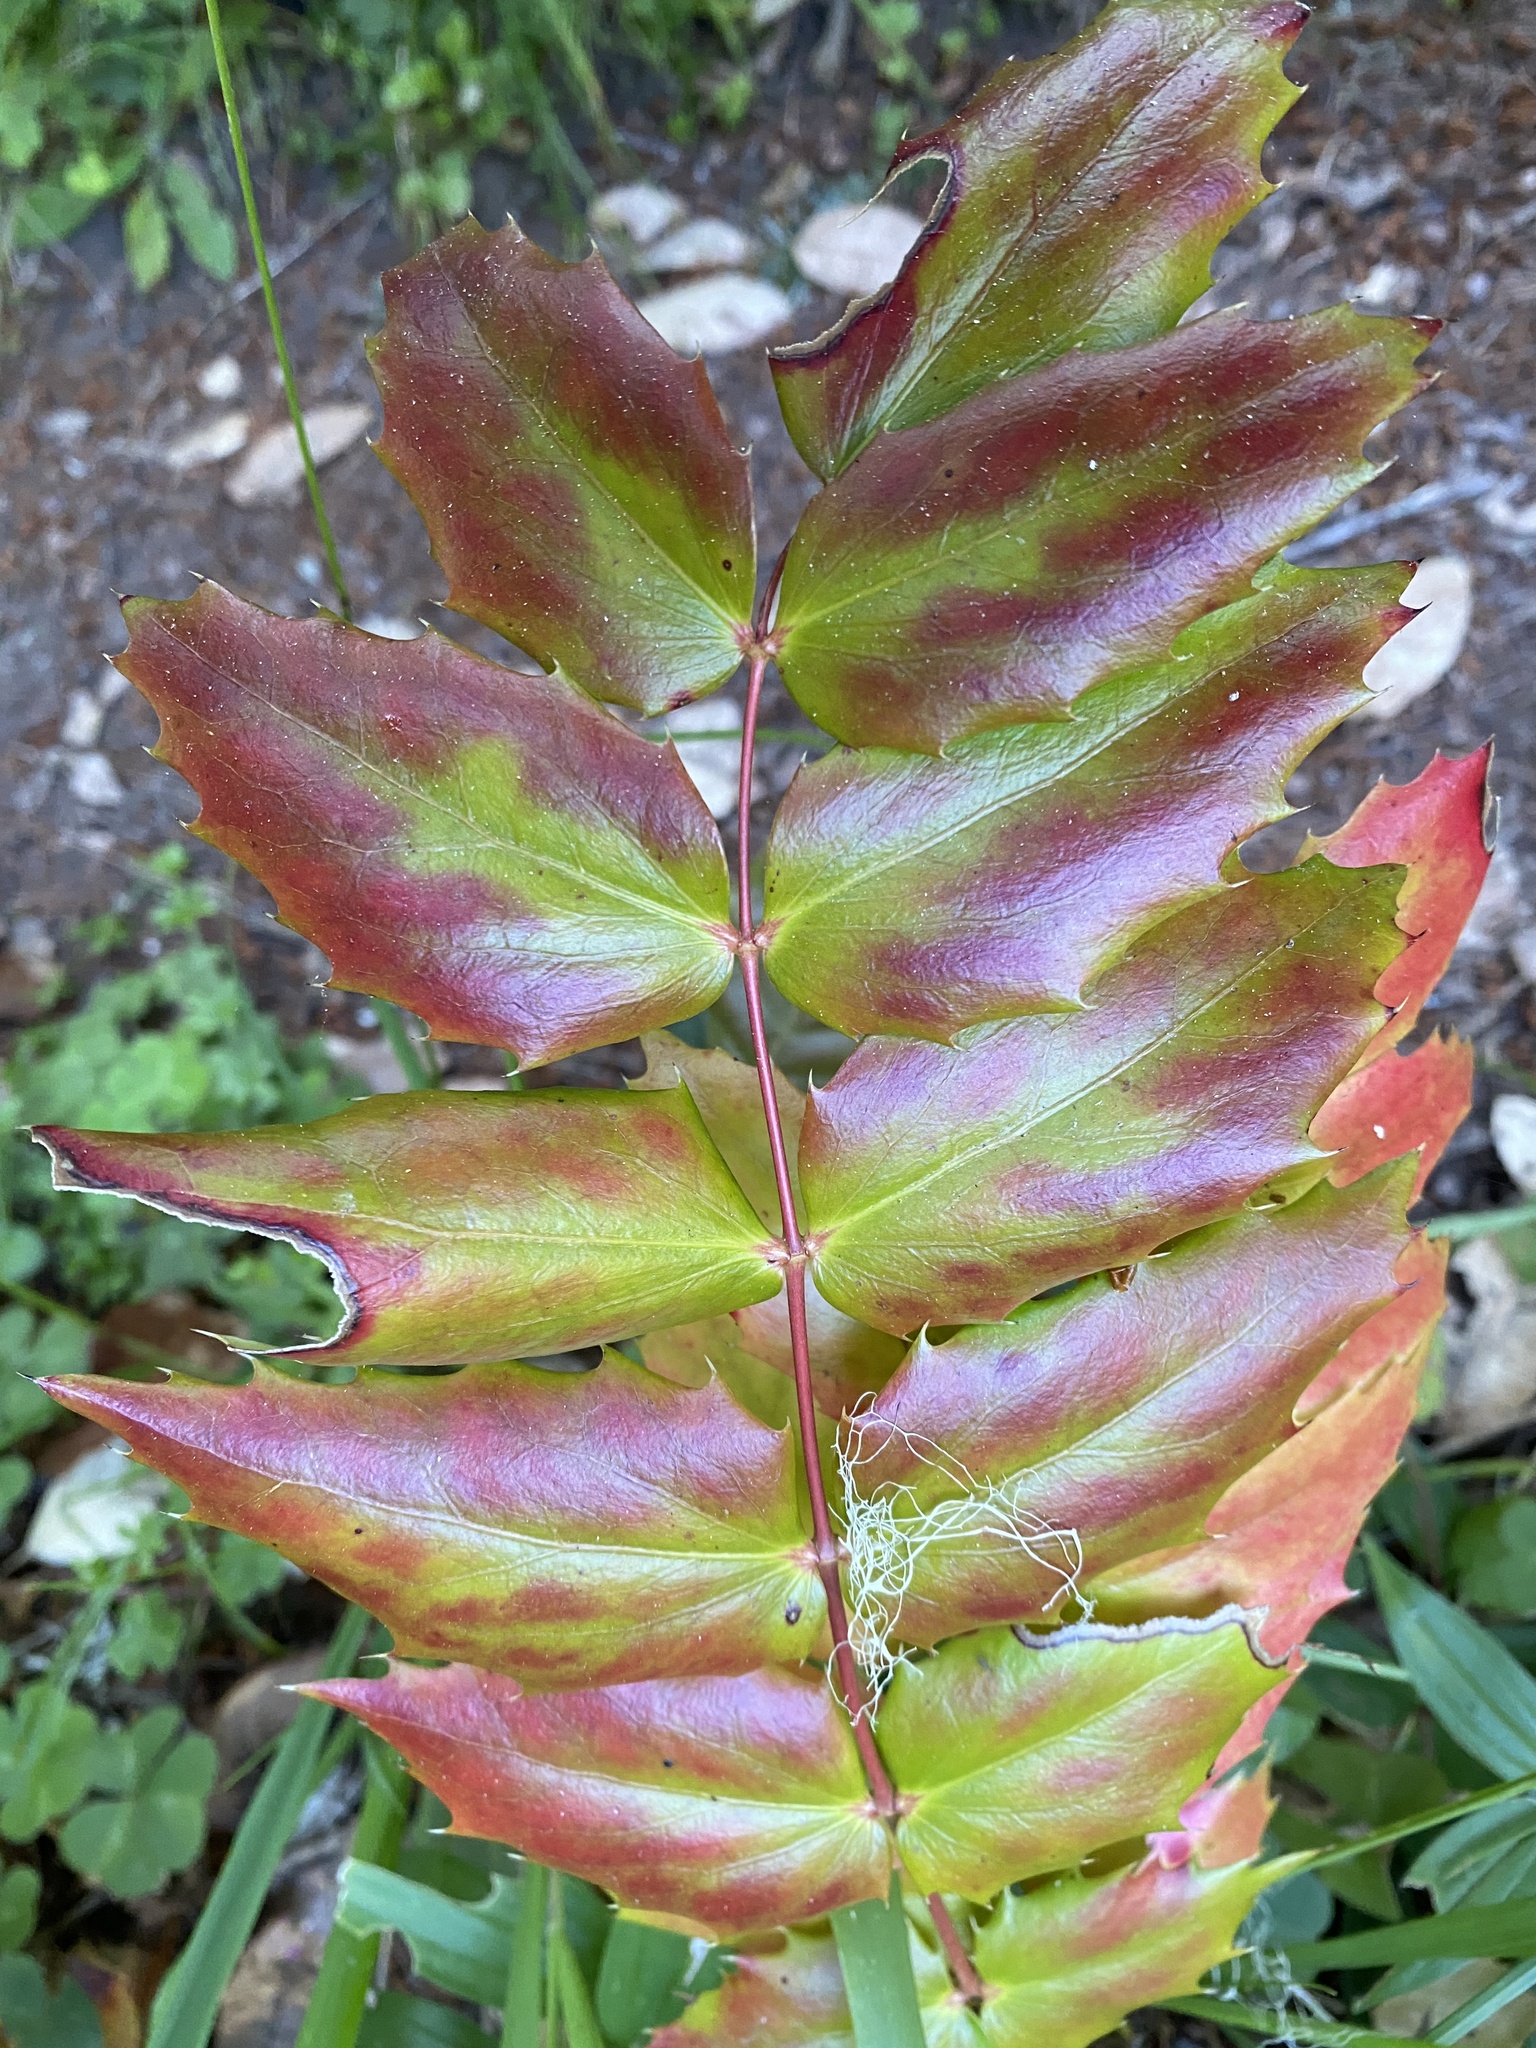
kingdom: Plantae
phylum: Tracheophyta
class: Magnoliopsida
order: Ranunculales
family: Berberidaceae
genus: Mahonia
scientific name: Mahonia nervosa
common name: Cascade oregon-grape
